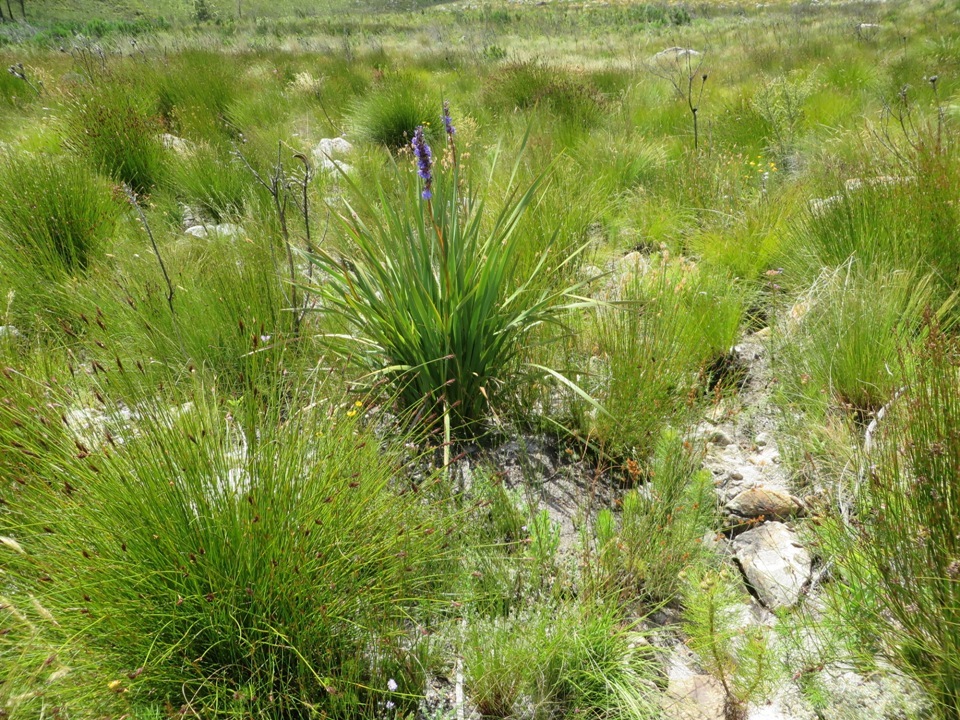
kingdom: Plantae
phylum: Tracheophyta
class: Liliopsida
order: Asparagales
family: Iridaceae
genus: Aristea
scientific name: Aristea capitata
